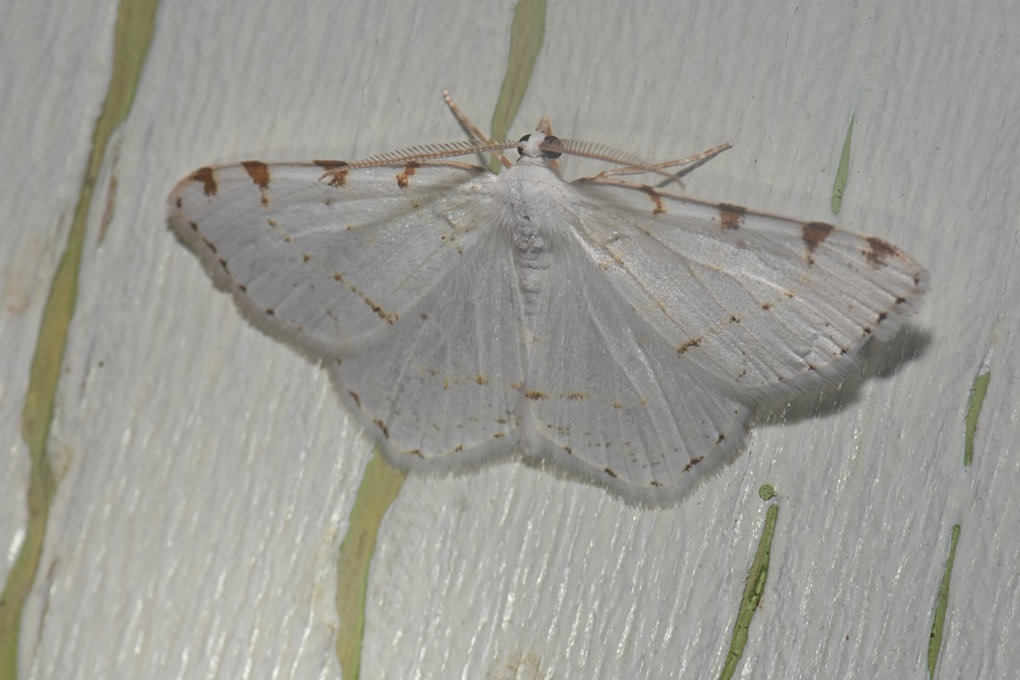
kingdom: Animalia
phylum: Arthropoda
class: Insecta
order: Lepidoptera
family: Geometridae
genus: Macaria
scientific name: Macaria pustularia
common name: Lesser maple spanworm moth
